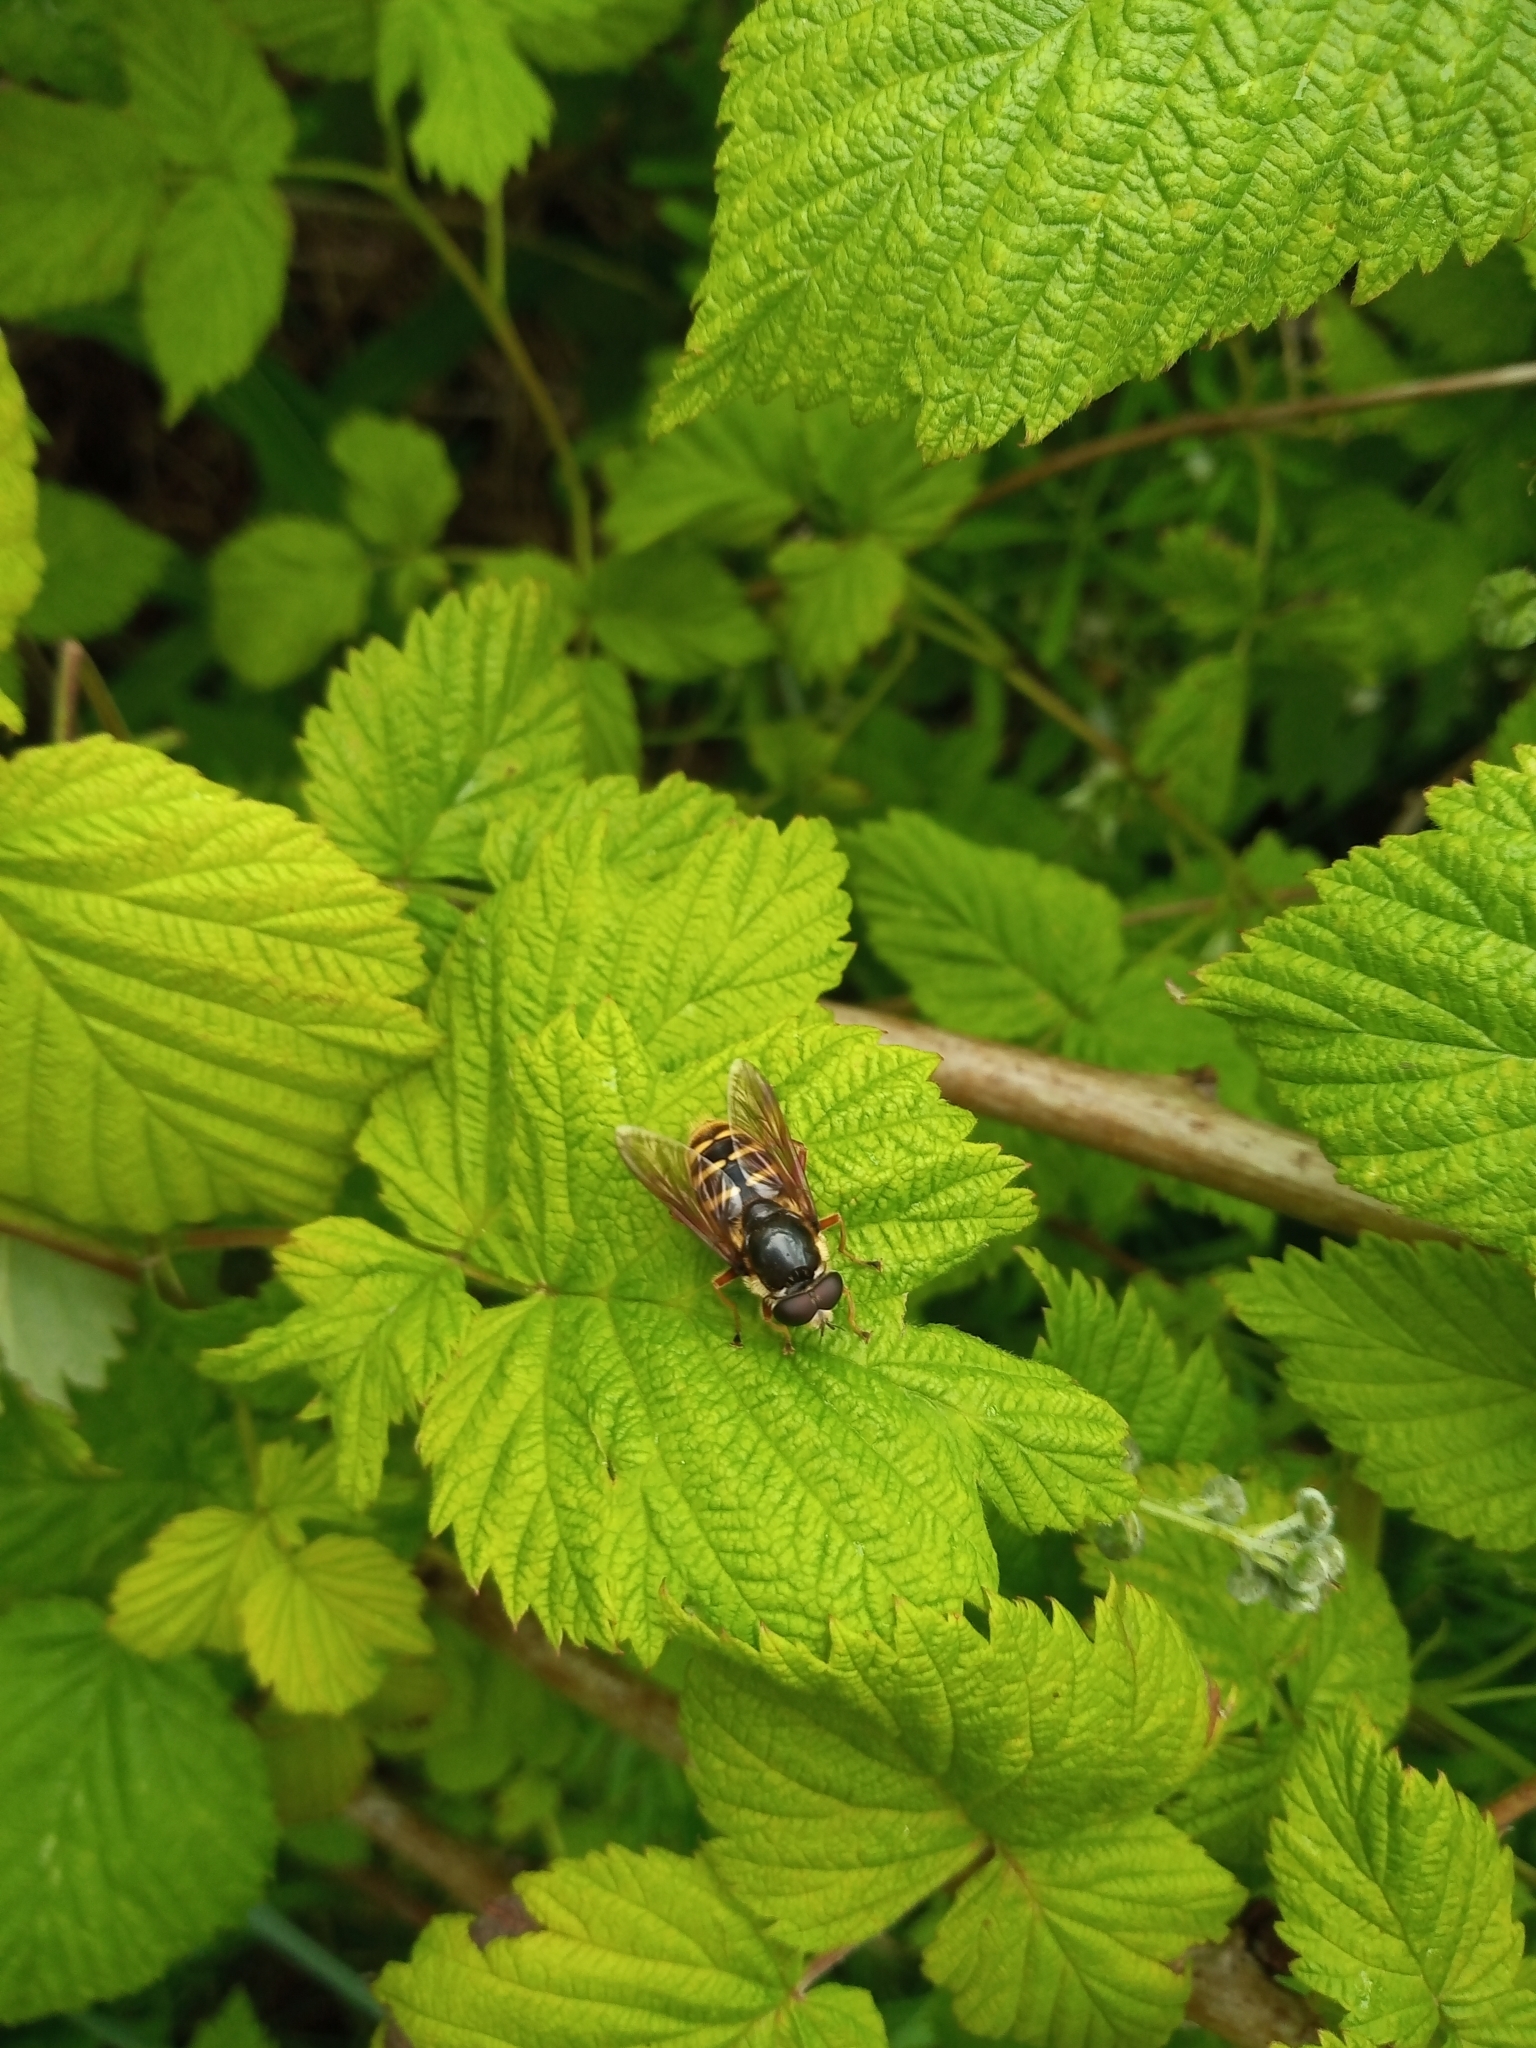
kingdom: Animalia
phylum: Arthropoda
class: Insecta
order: Diptera
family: Syrphidae
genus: Sericomyia
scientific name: Sericomyia silentis
